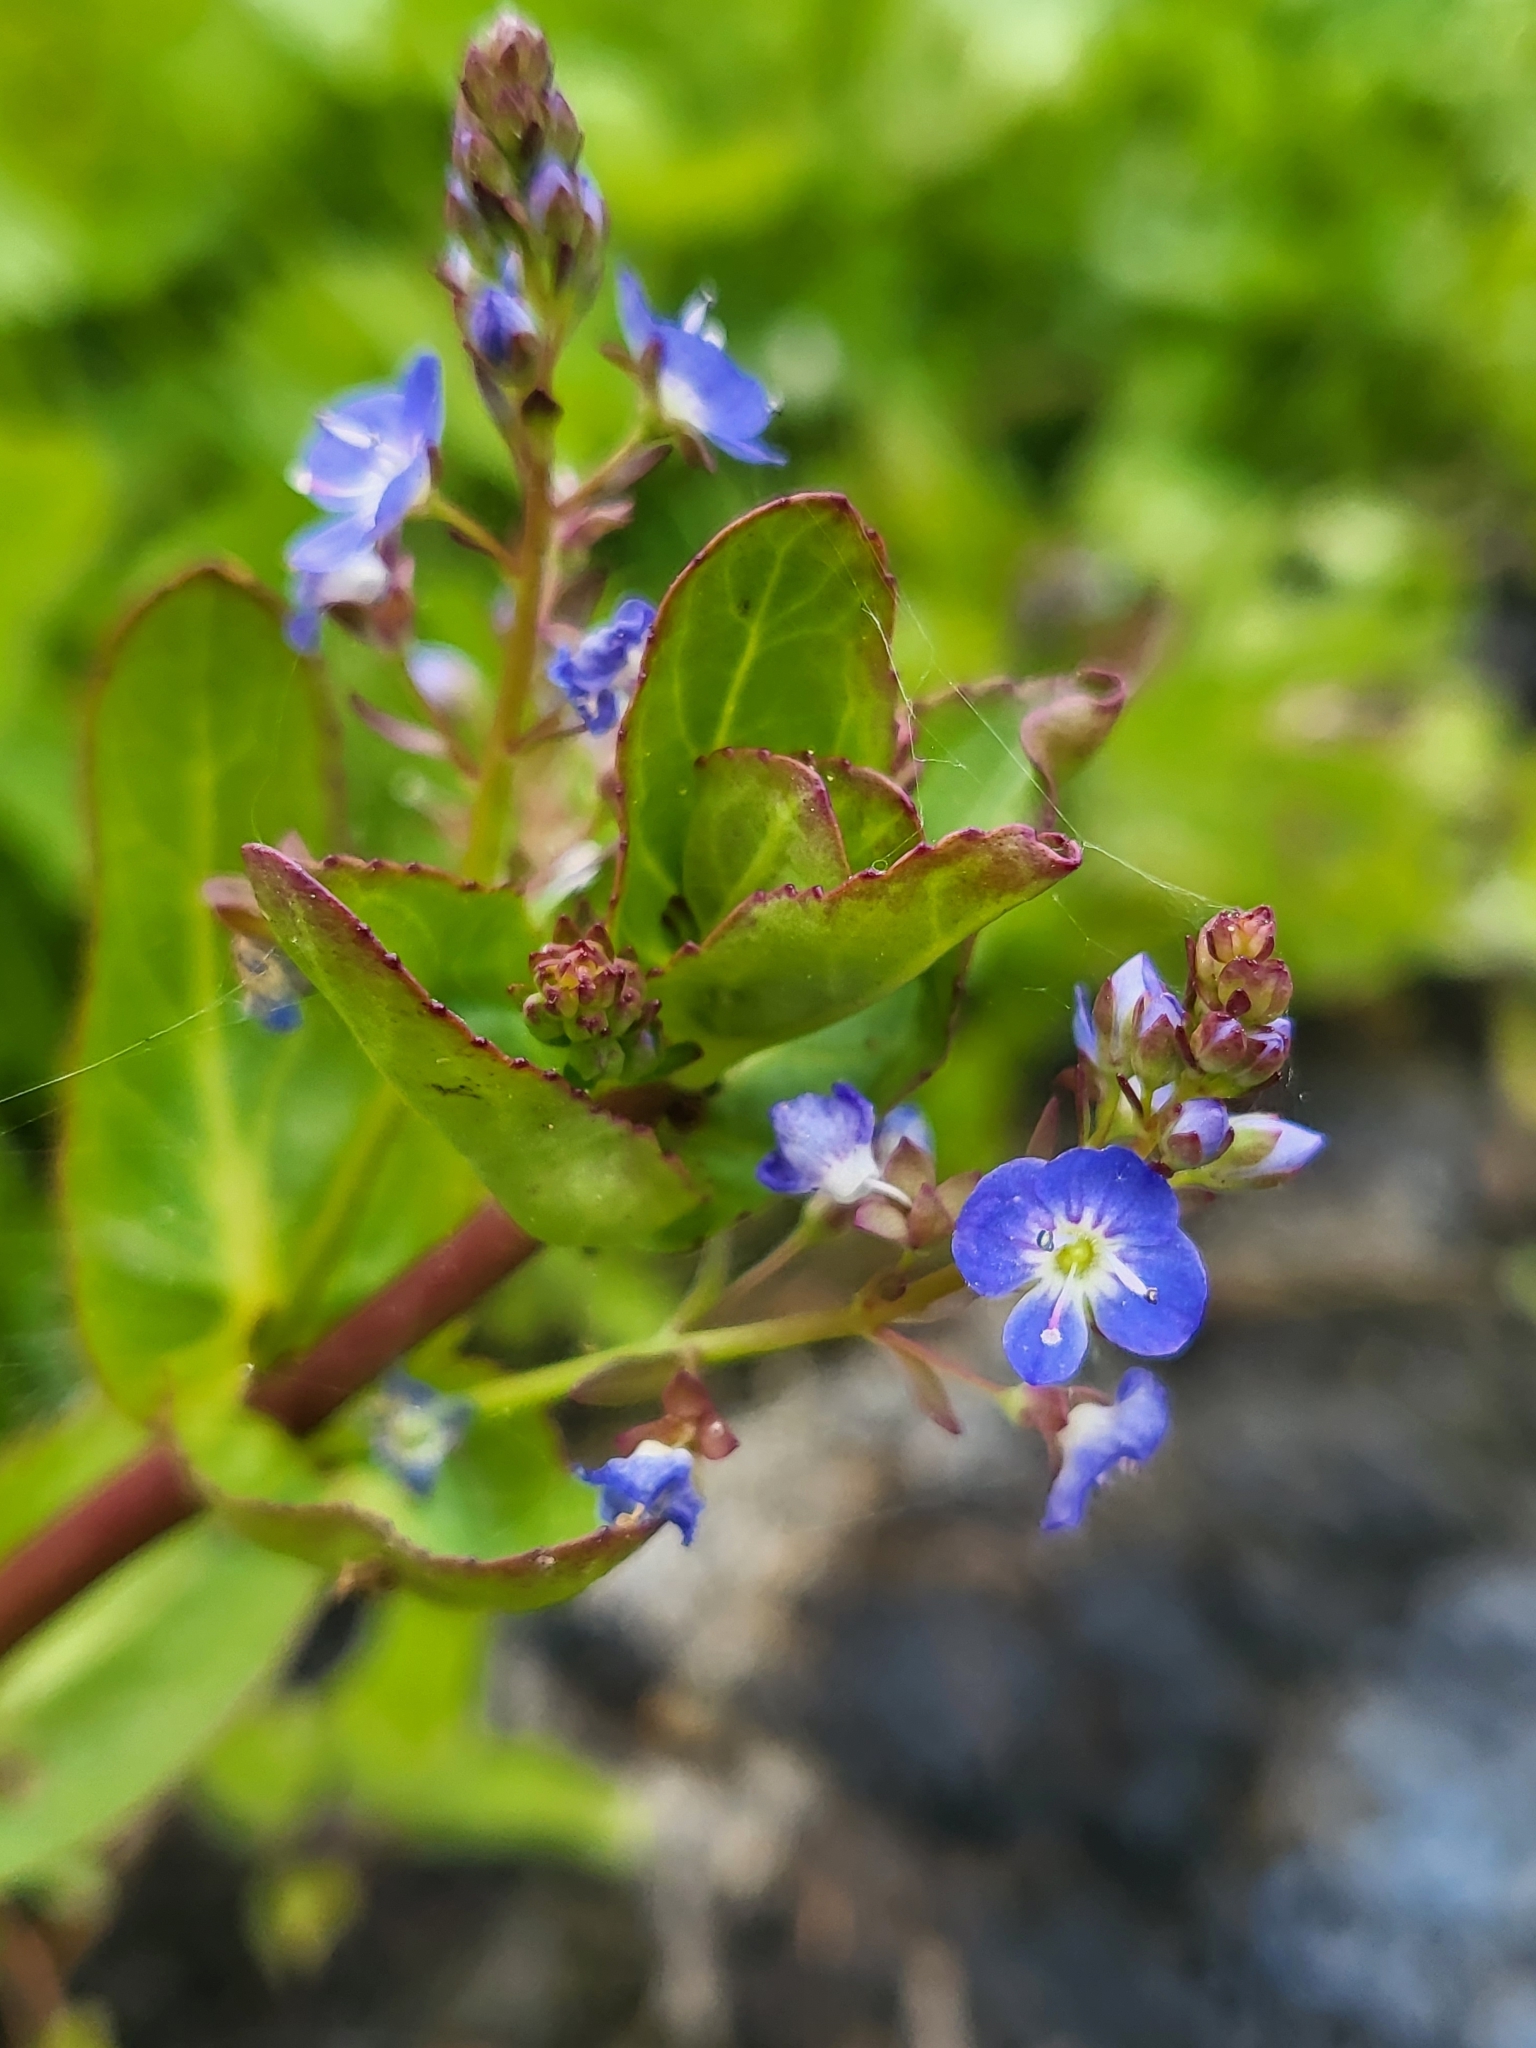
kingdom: Plantae
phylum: Tracheophyta
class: Magnoliopsida
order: Lamiales
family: Plantaginaceae
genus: Veronica
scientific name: Veronica americana
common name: American brooklime
